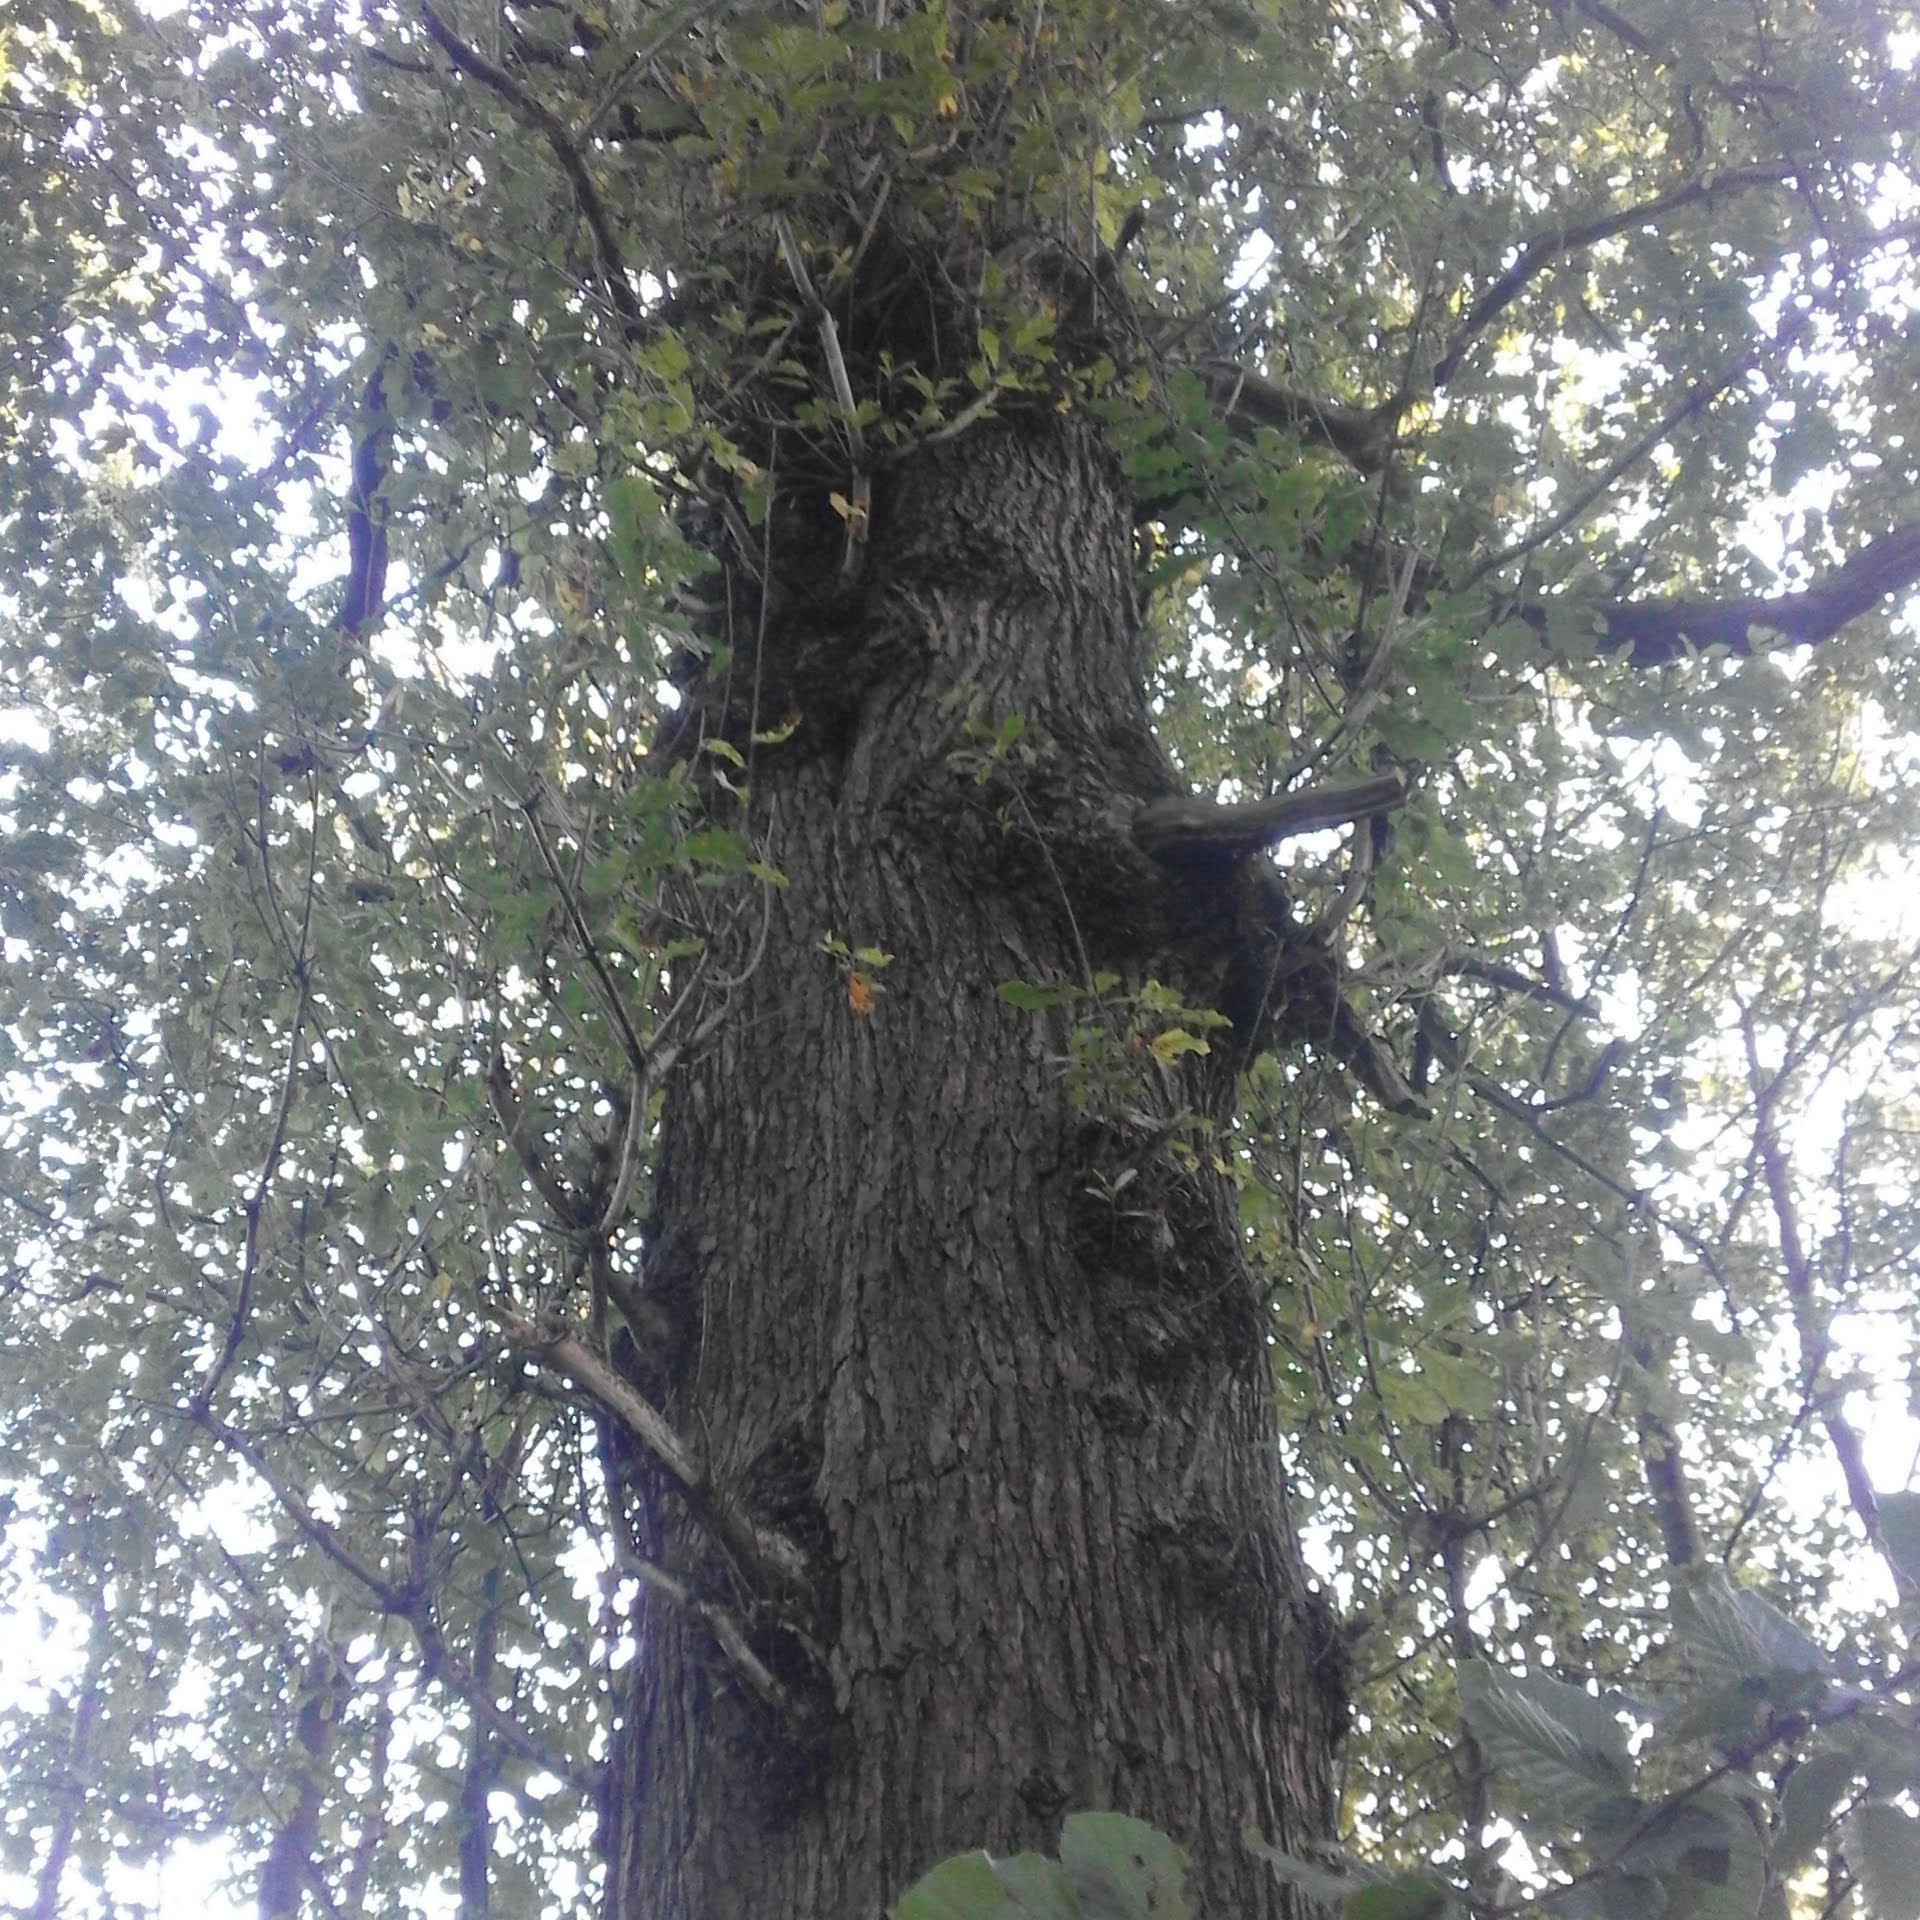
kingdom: Plantae
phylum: Tracheophyta
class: Magnoliopsida
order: Fagales
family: Fagaceae
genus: Quercus
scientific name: Quercus robur
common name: Pedunculate oak
